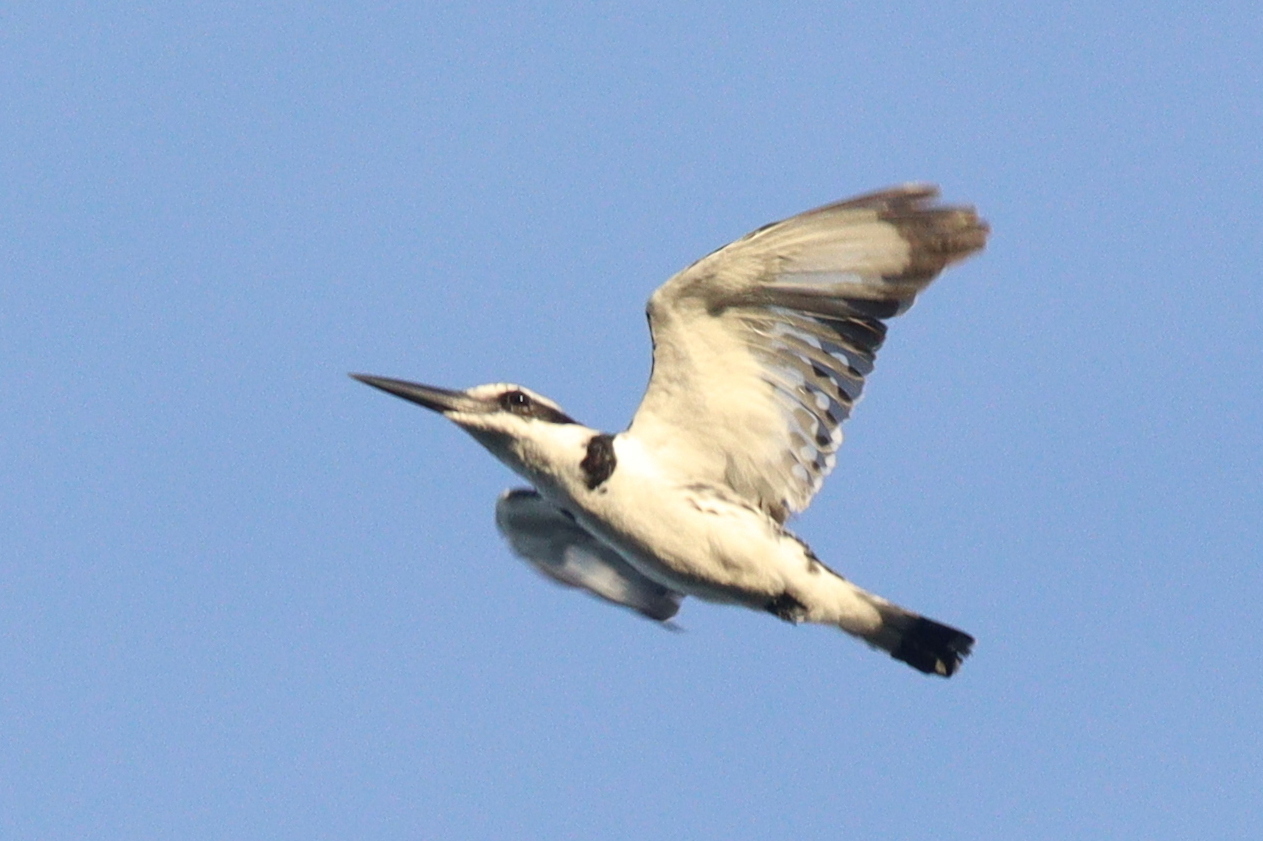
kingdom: Animalia
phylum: Chordata
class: Aves
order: Coraciiformes
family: Alcedinidae
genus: Ceryle
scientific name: Ceryle rudis
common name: Pied kingfisher
